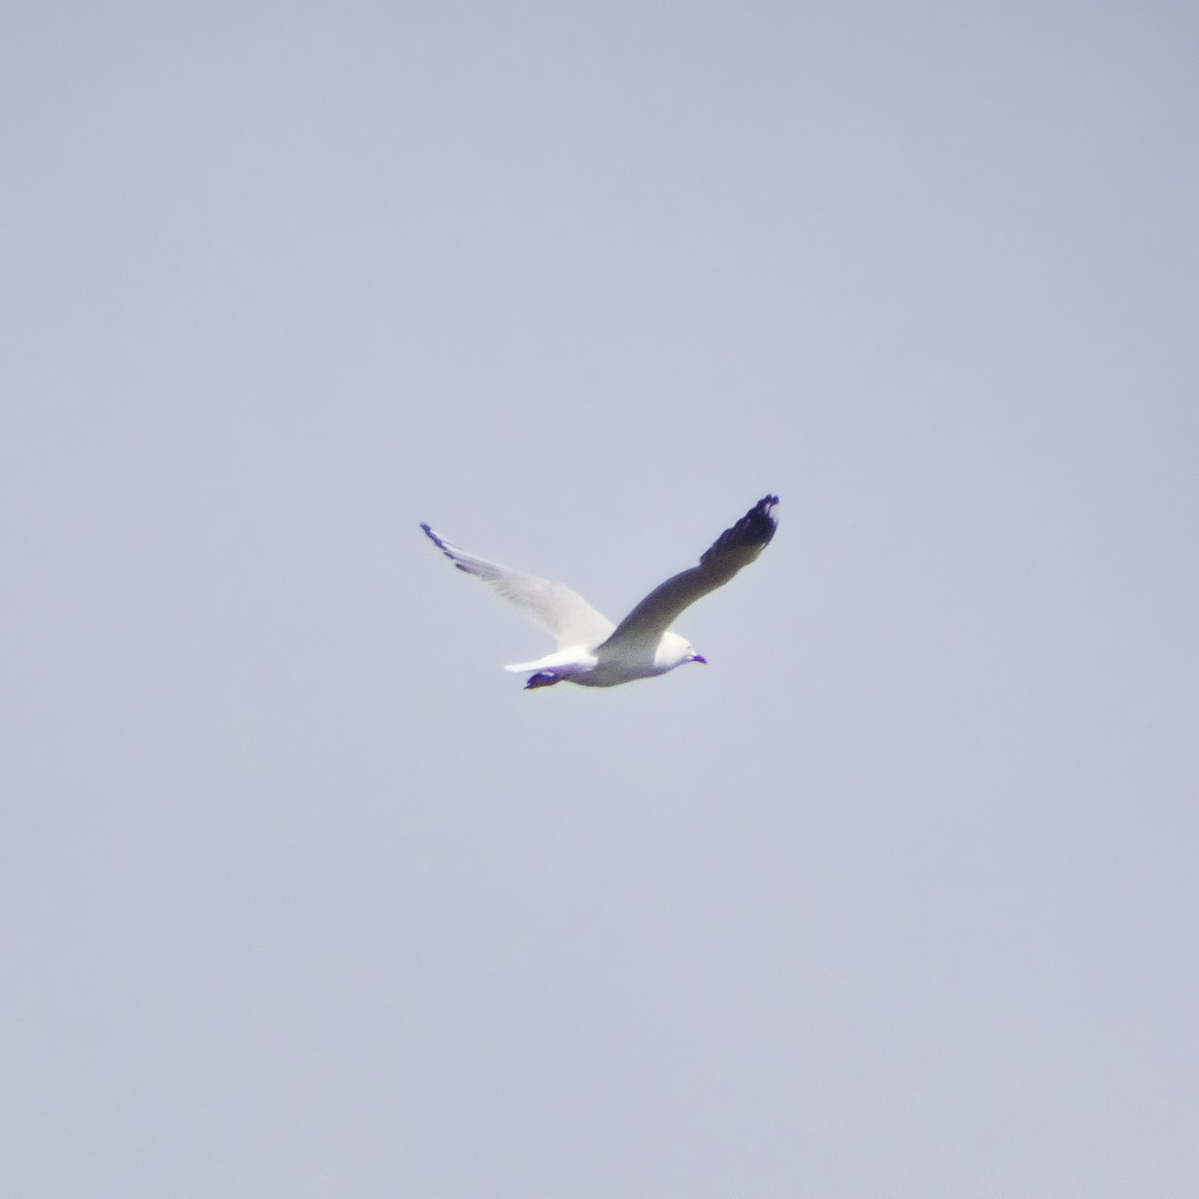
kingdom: Animalia
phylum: Chordata
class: Aves
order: Charadriiformes
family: Laridae
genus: Chroicocephalus
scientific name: Chroicocephalus novaehollandiae
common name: Silver gull
